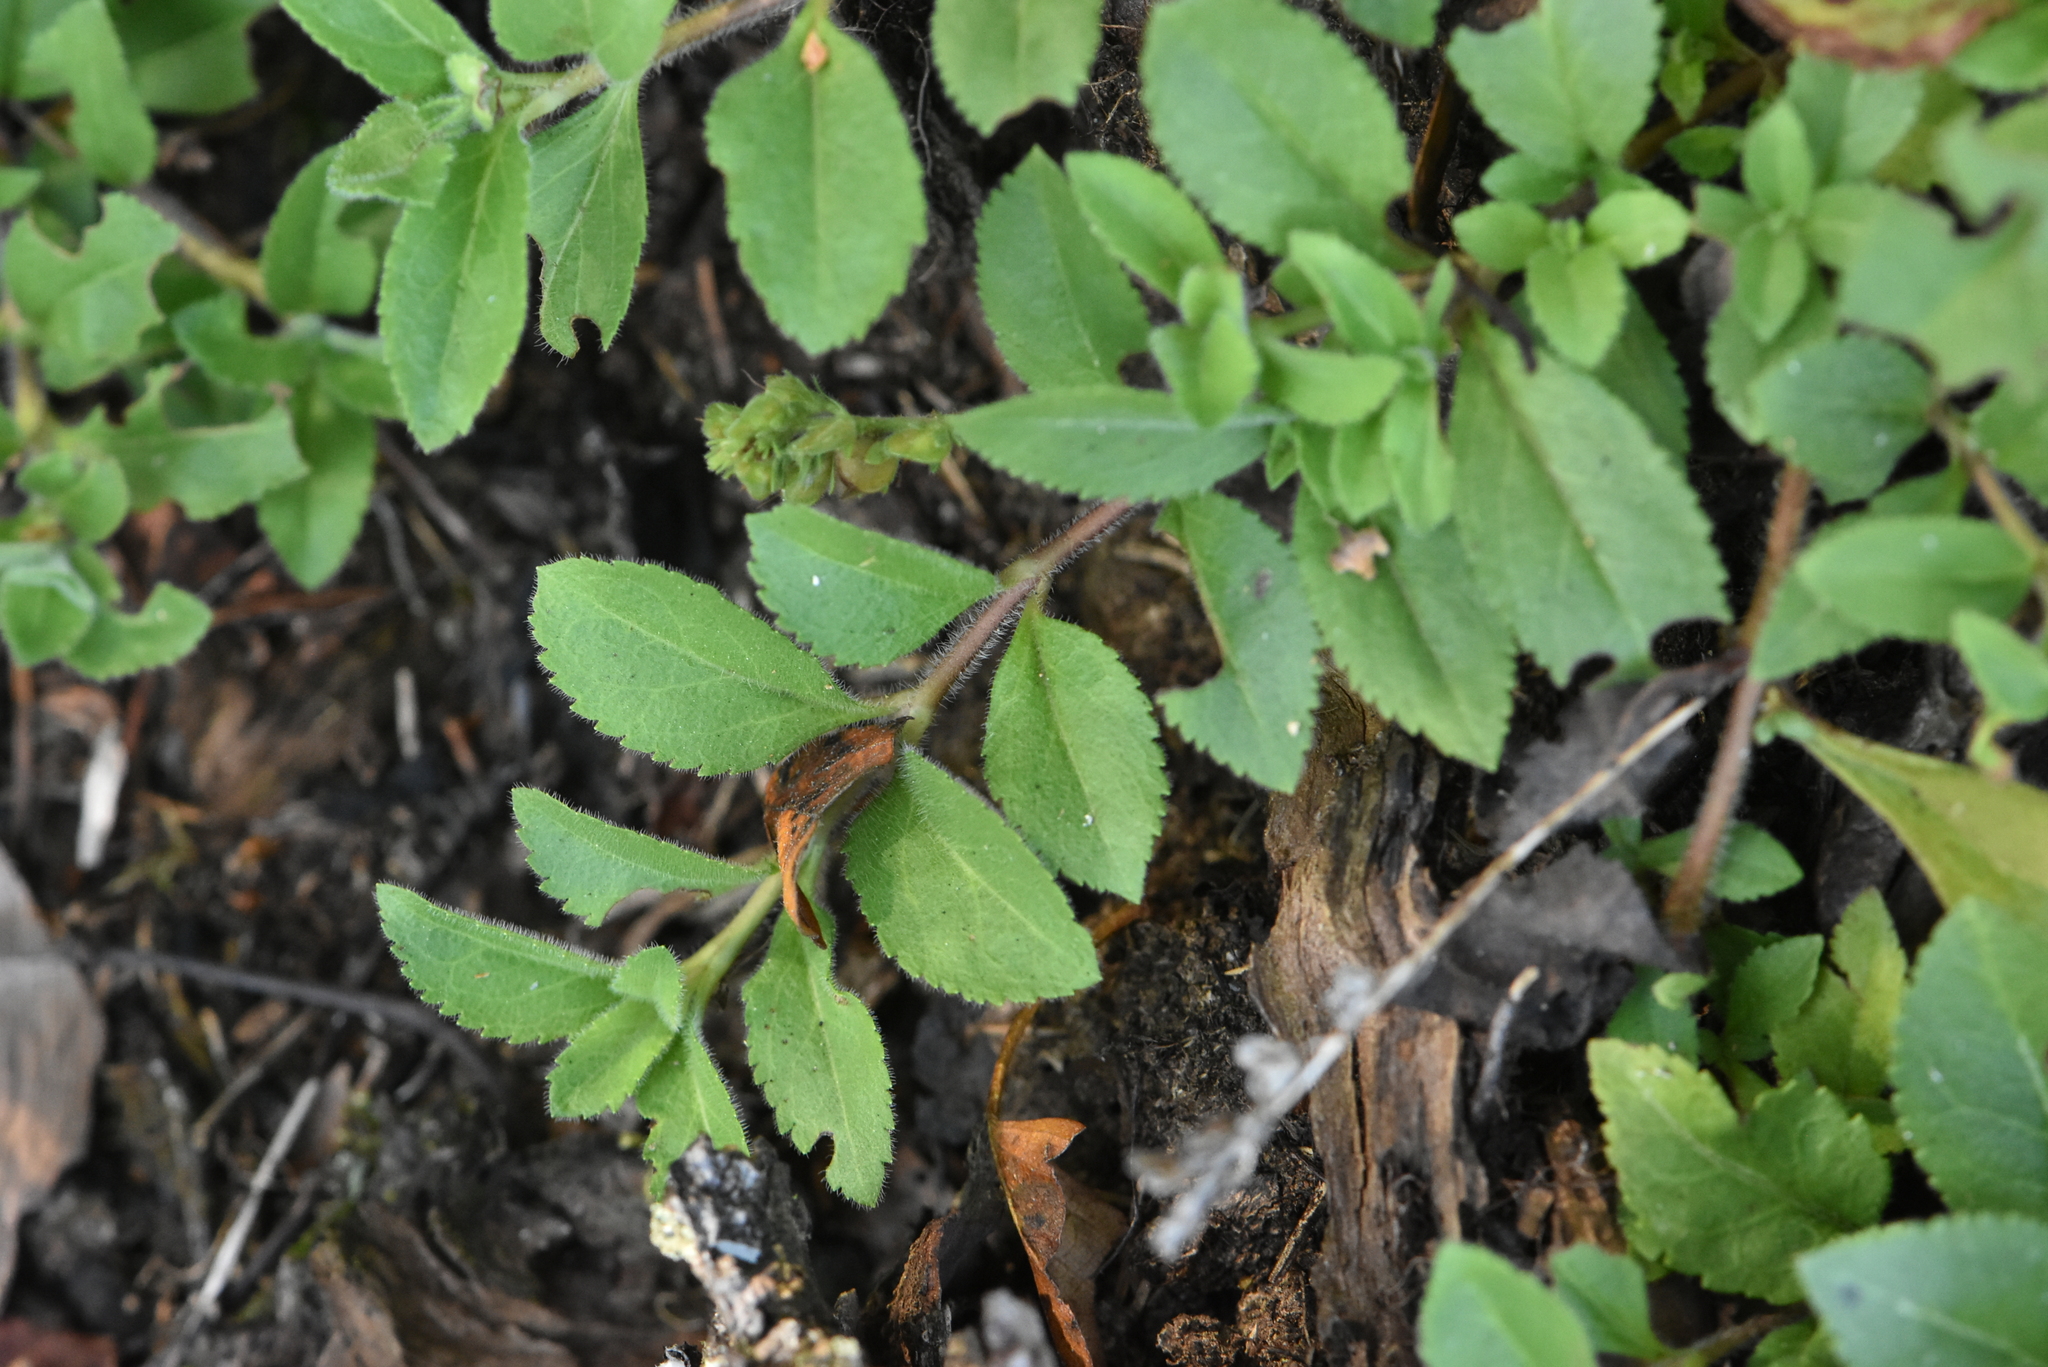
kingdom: Plantae
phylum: Tracheophyta
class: Magnoliopsida
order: Lamiales
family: Plantaginaceae
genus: Veronica
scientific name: Veronica officinalis
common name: Common speedwell
